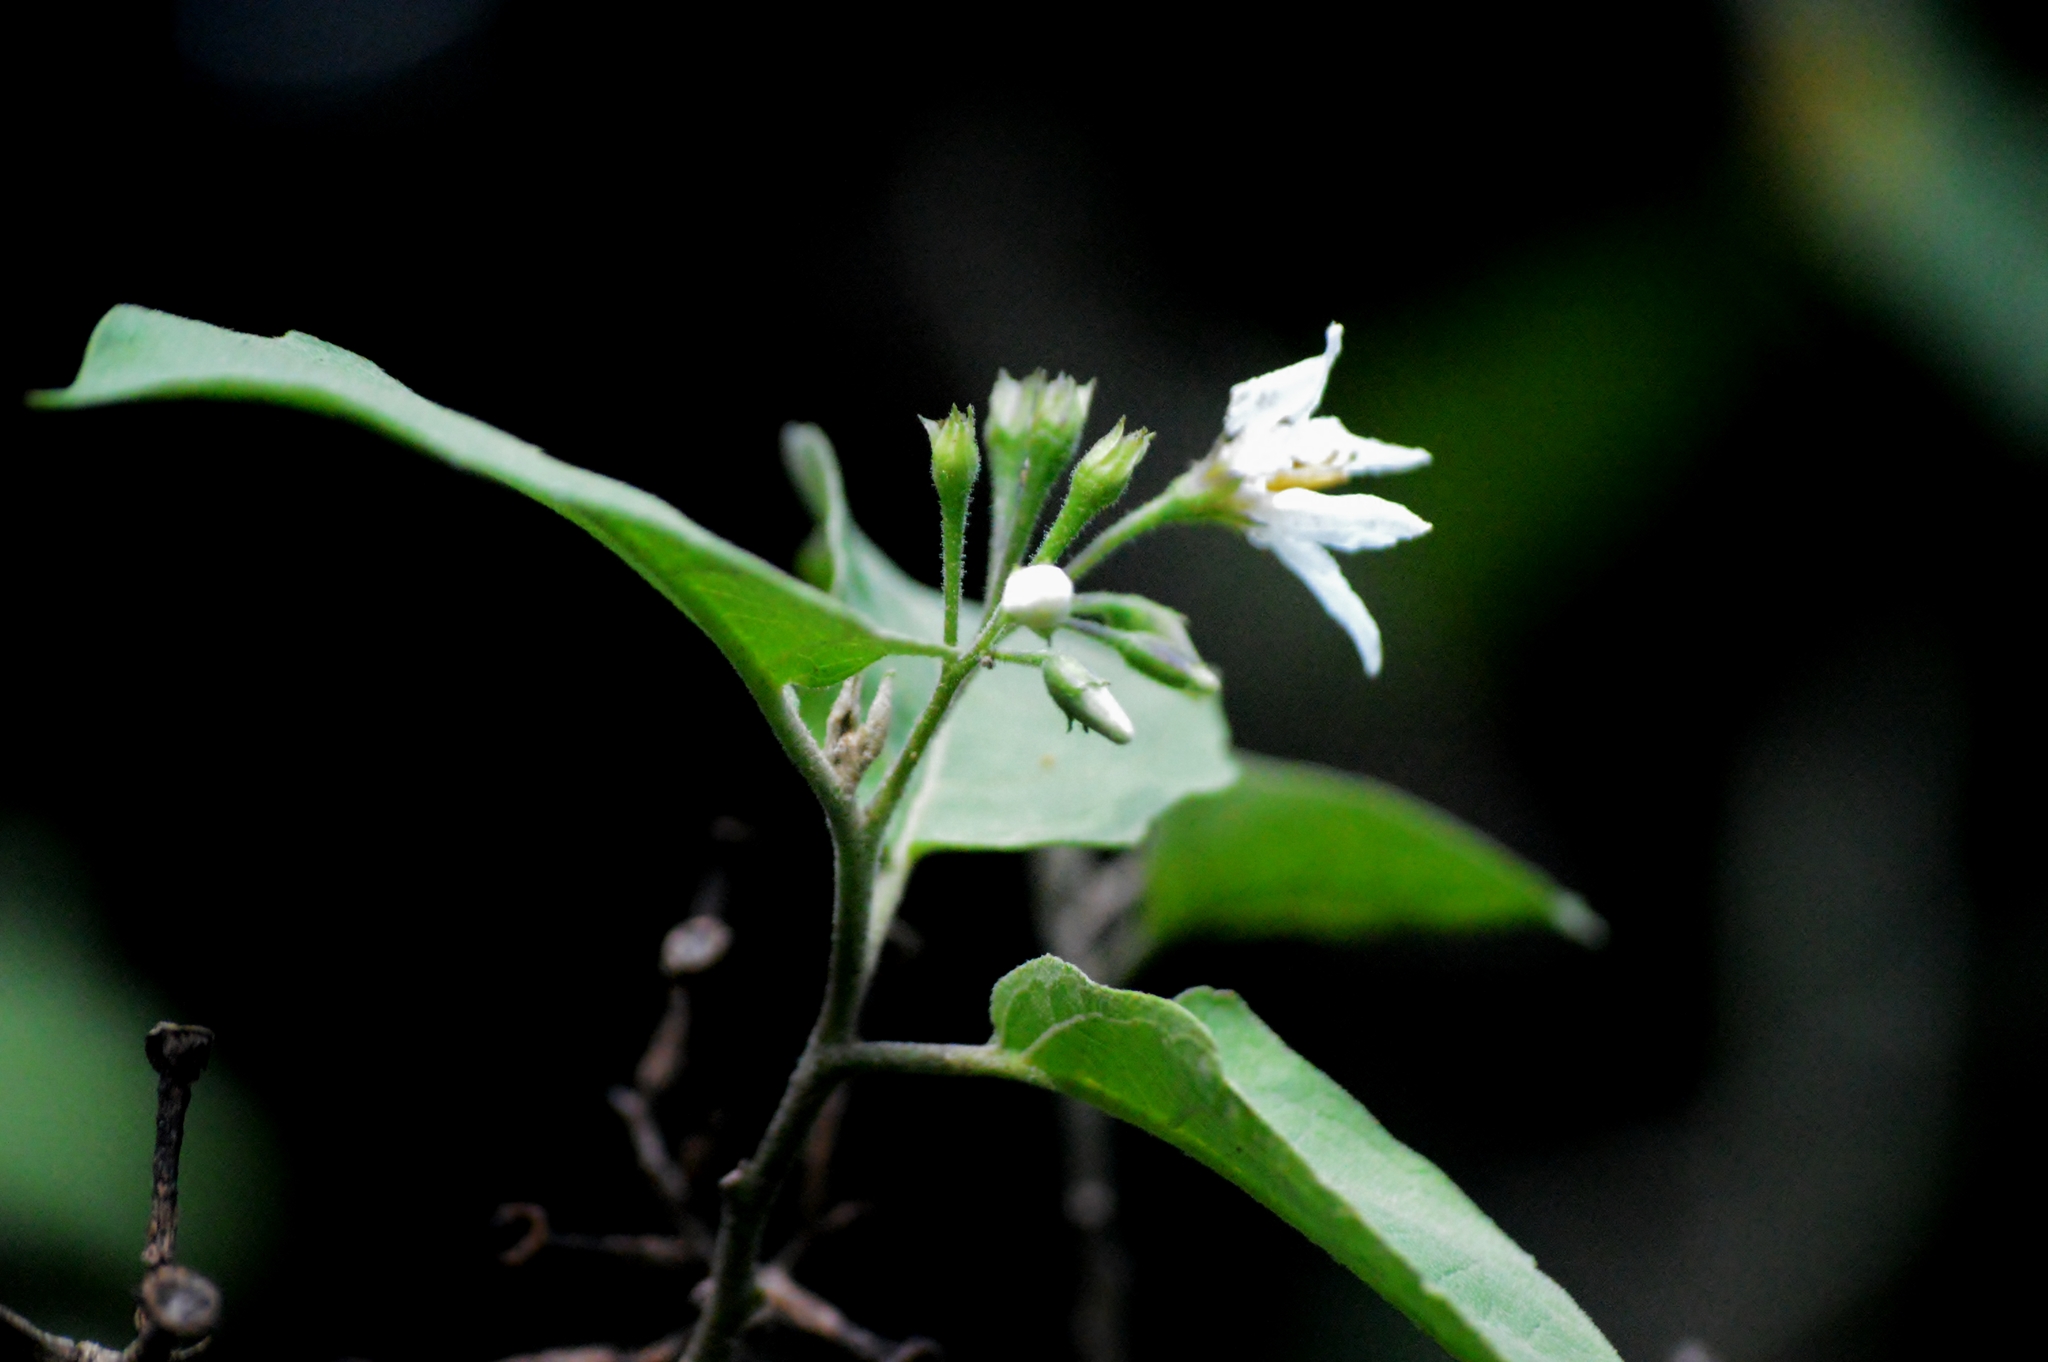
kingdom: Plantae
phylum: Tracheophyta
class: Magnoliopsida
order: Solanales
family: Solanaceae
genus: Solanum
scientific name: Solanum torvum
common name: Turkey berry
